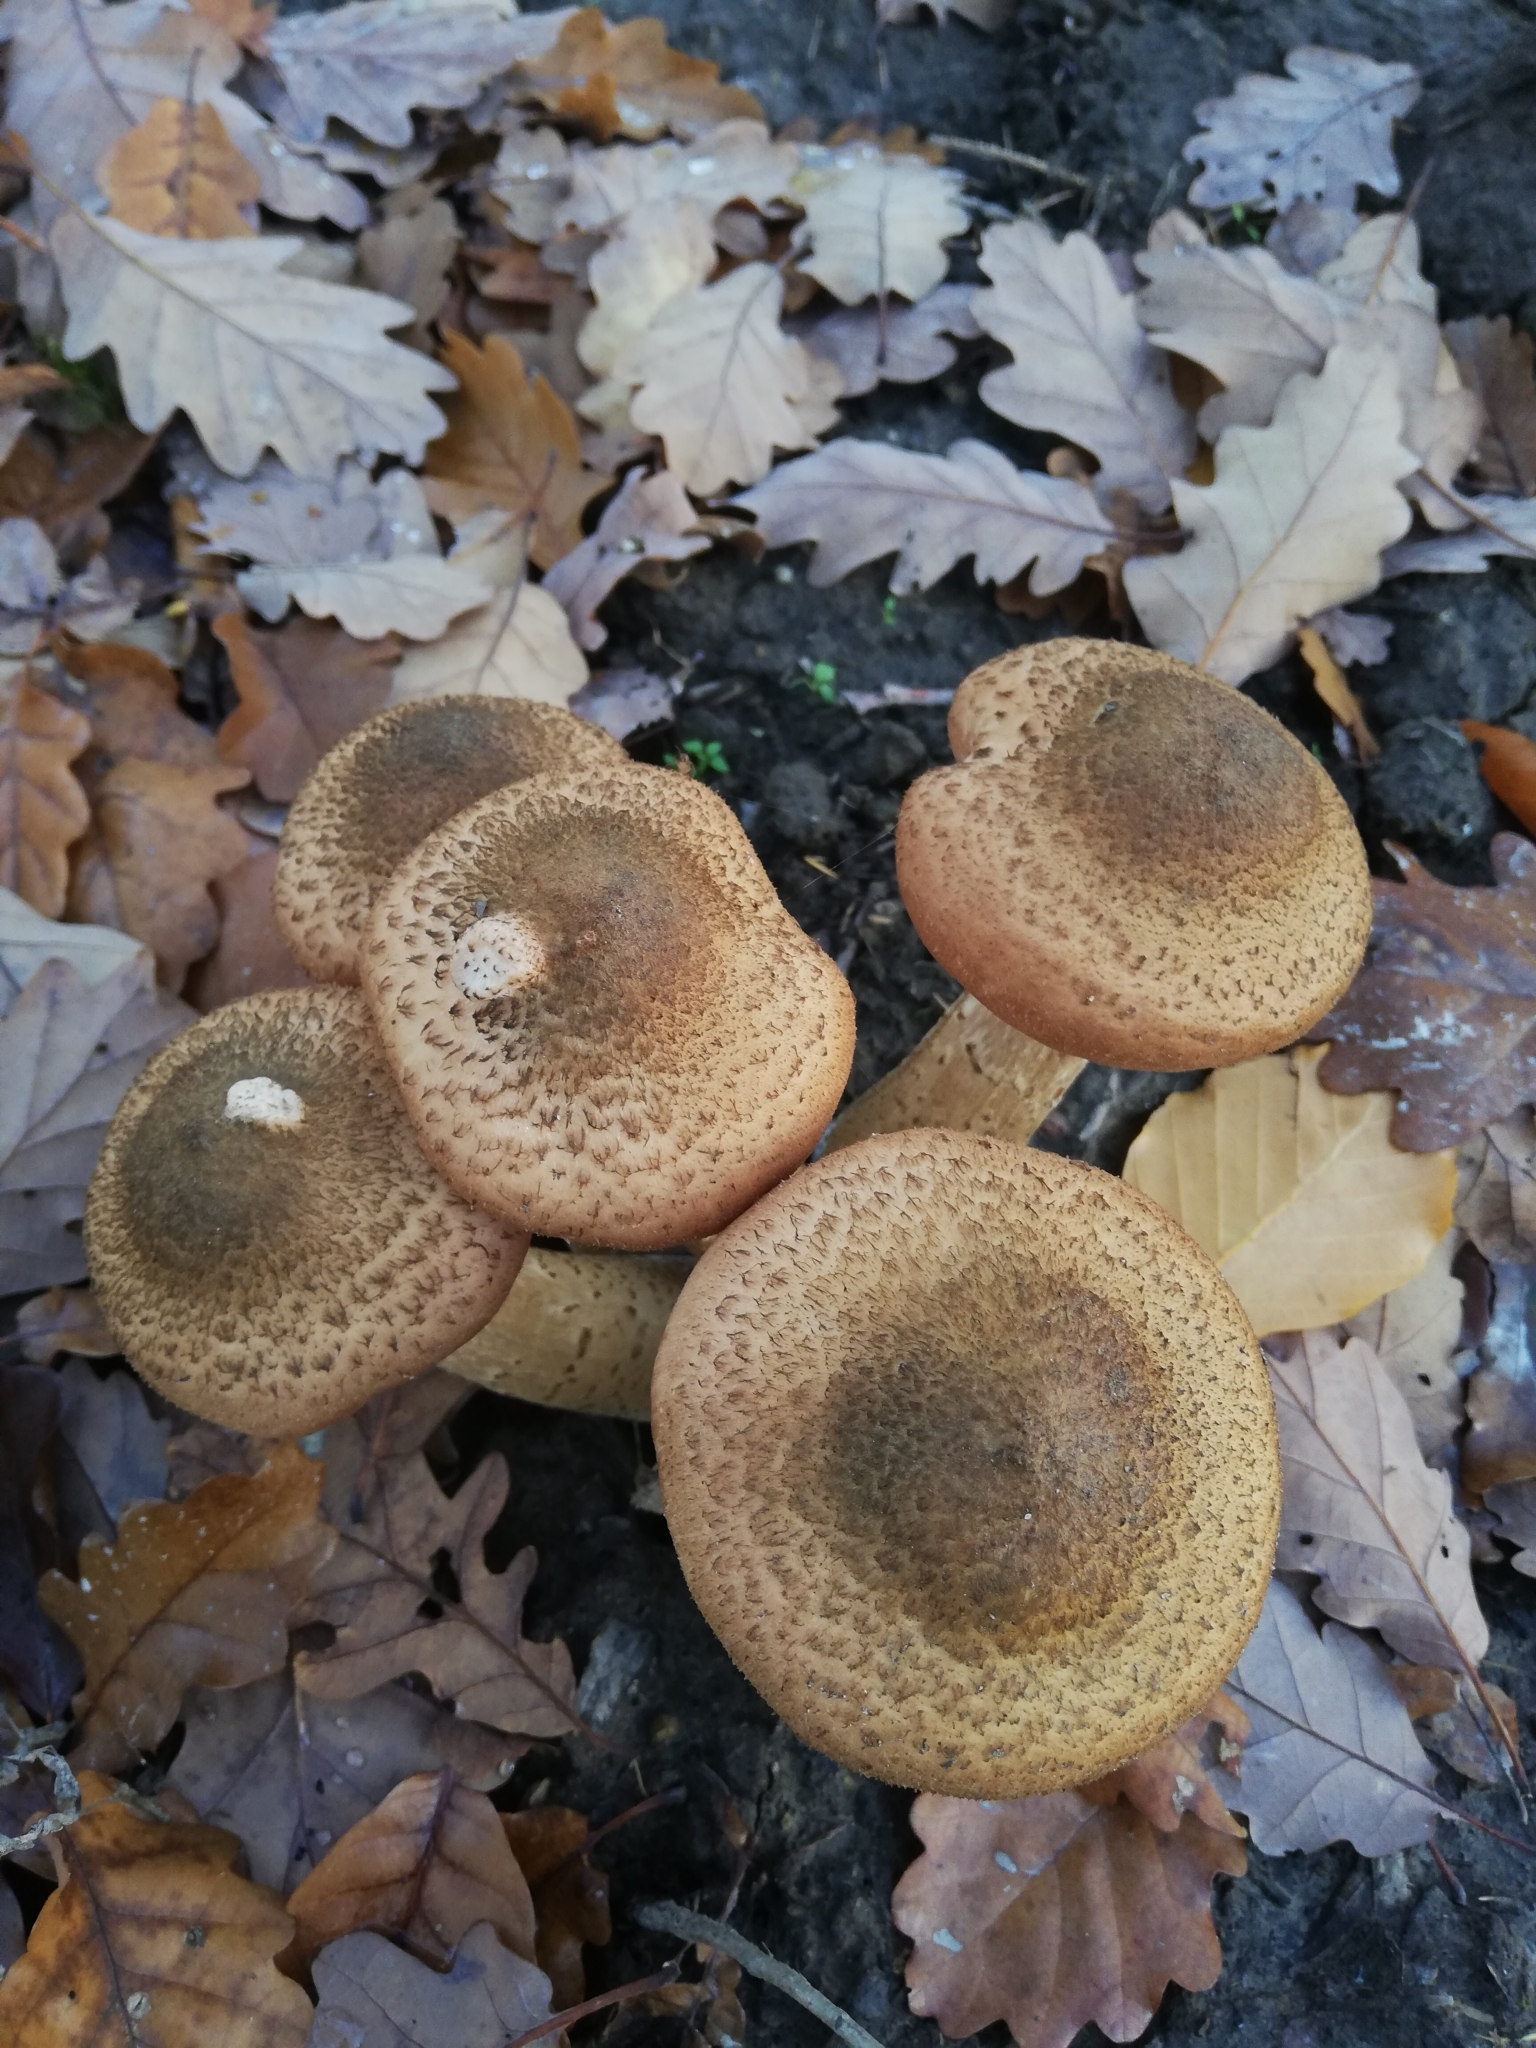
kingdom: Fungi
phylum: Basidiomycota
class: Agaricomycetes
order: Agaricales
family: Physalacriaceae
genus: Armillaria
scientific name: Armillaria ostoyae
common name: Dark honey fungus
